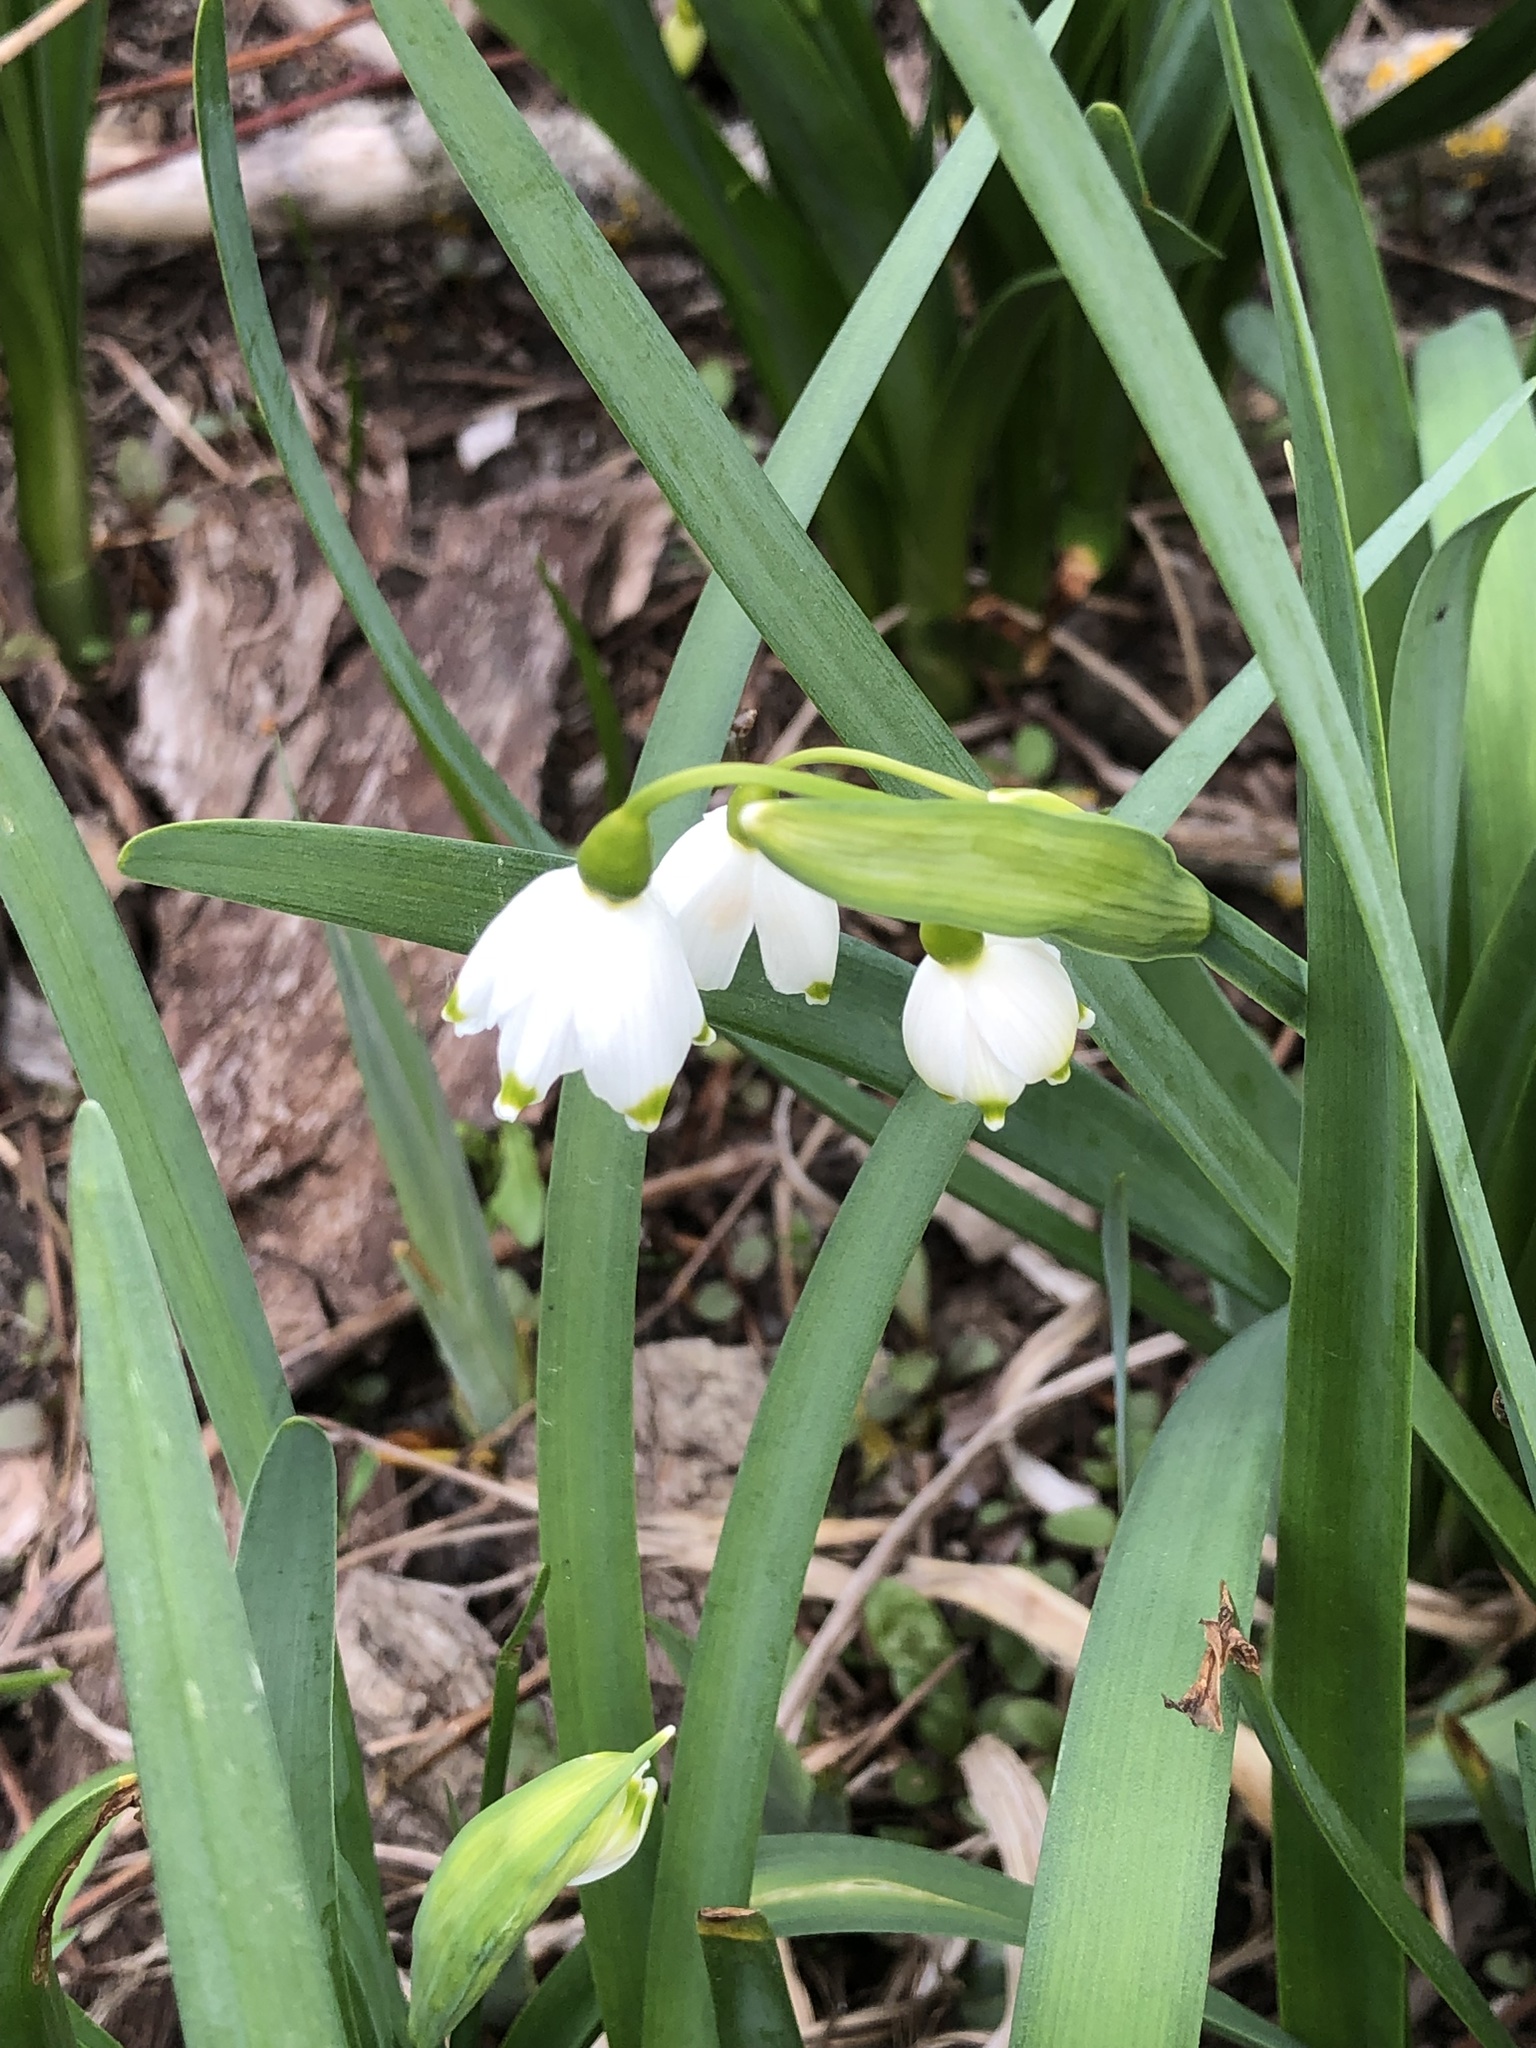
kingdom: Plantae
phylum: Tracheophyta
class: Liliopsida
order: Asparagales
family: Amaryllidaceae
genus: Leucojum
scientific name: Leucojum aestivum
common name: Summer snowflake
